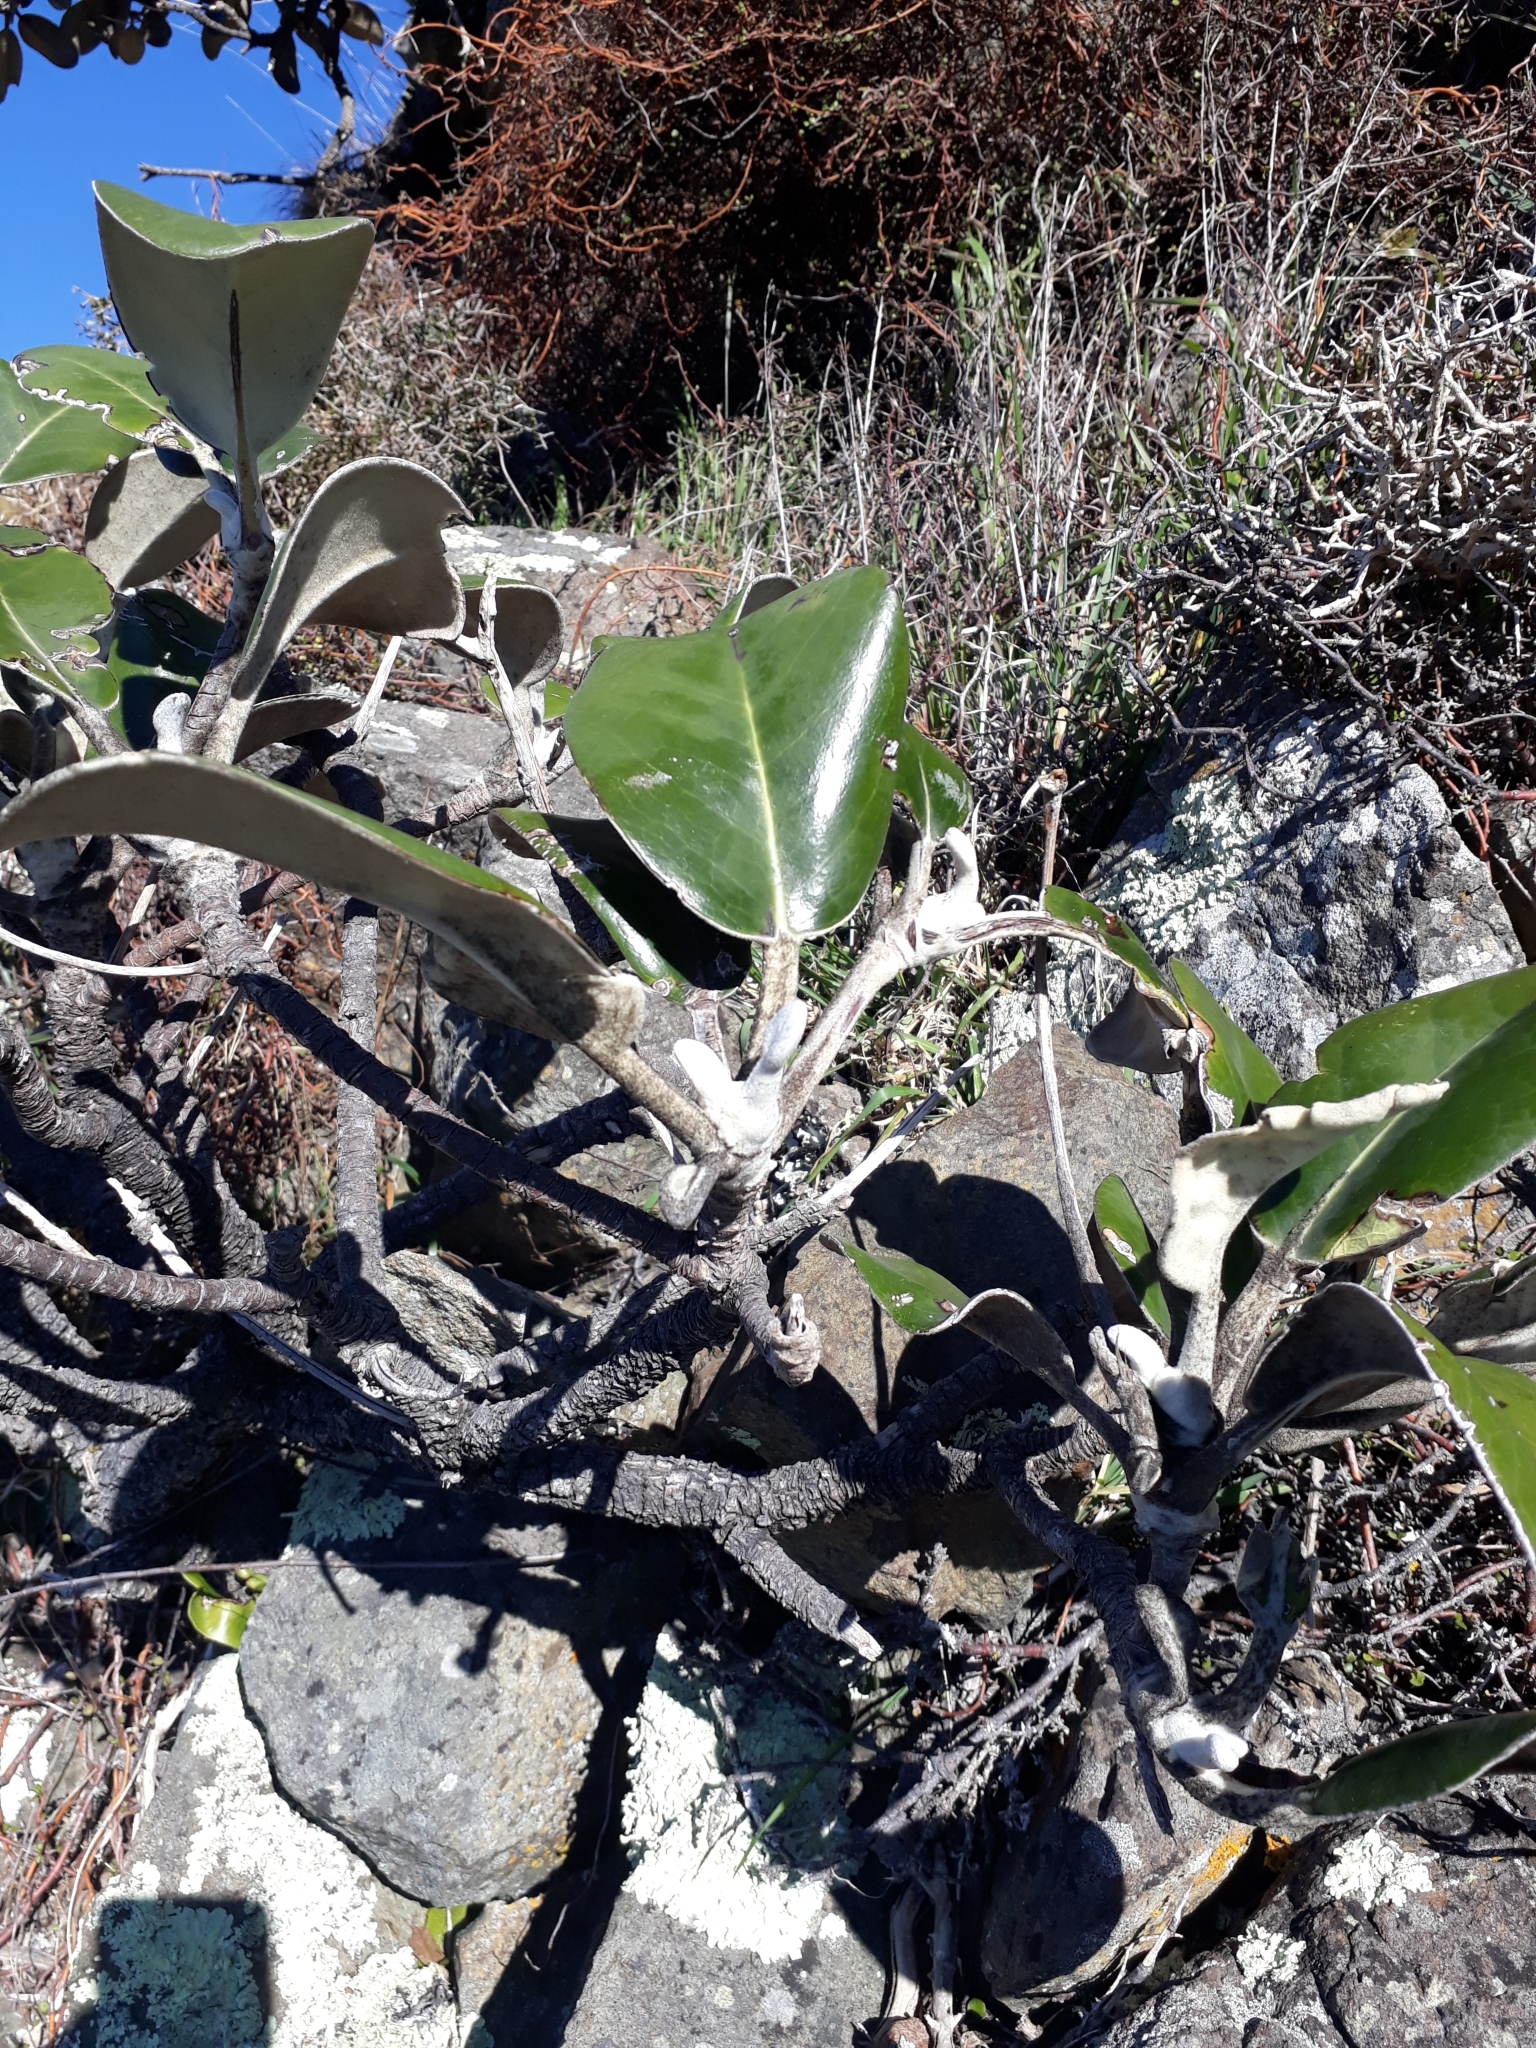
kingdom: Plantae
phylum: Tracheophyta
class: Magnoliopsida
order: Asterales
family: Asteraceae
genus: Pachystegia
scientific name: Pachystegia insignis
